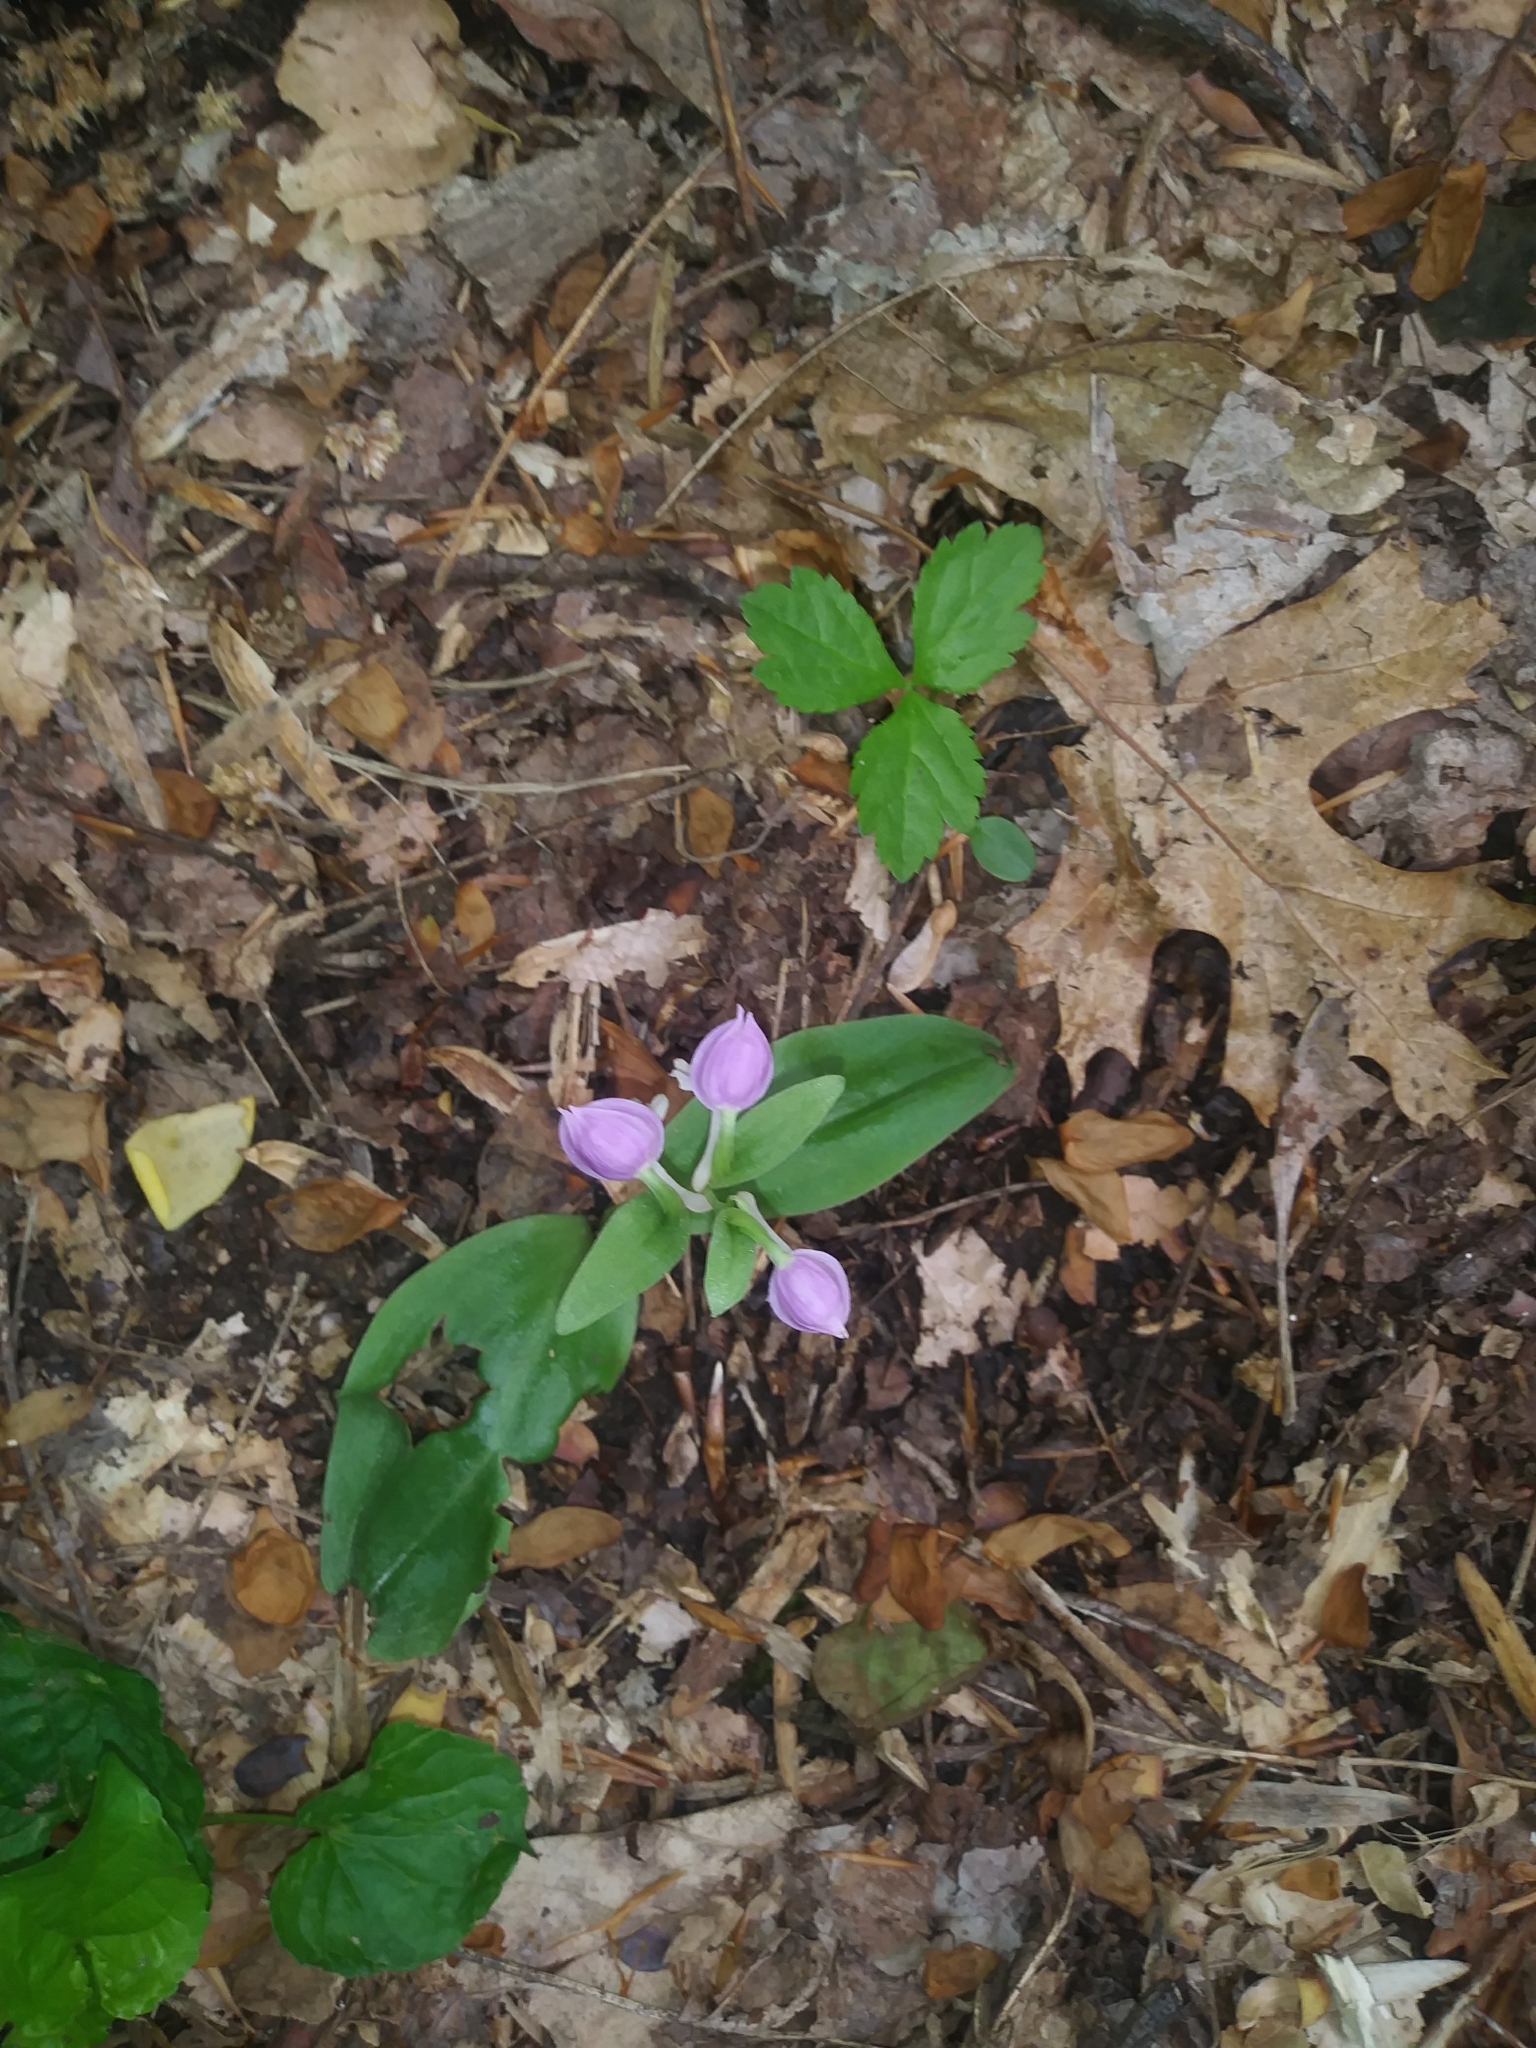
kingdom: Plantae
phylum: Tracheophyta
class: Liliopsida
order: Asparagales
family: Orchidaceae
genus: Galearis
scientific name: Galearis spectabilis
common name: Purple-hooded orchis
